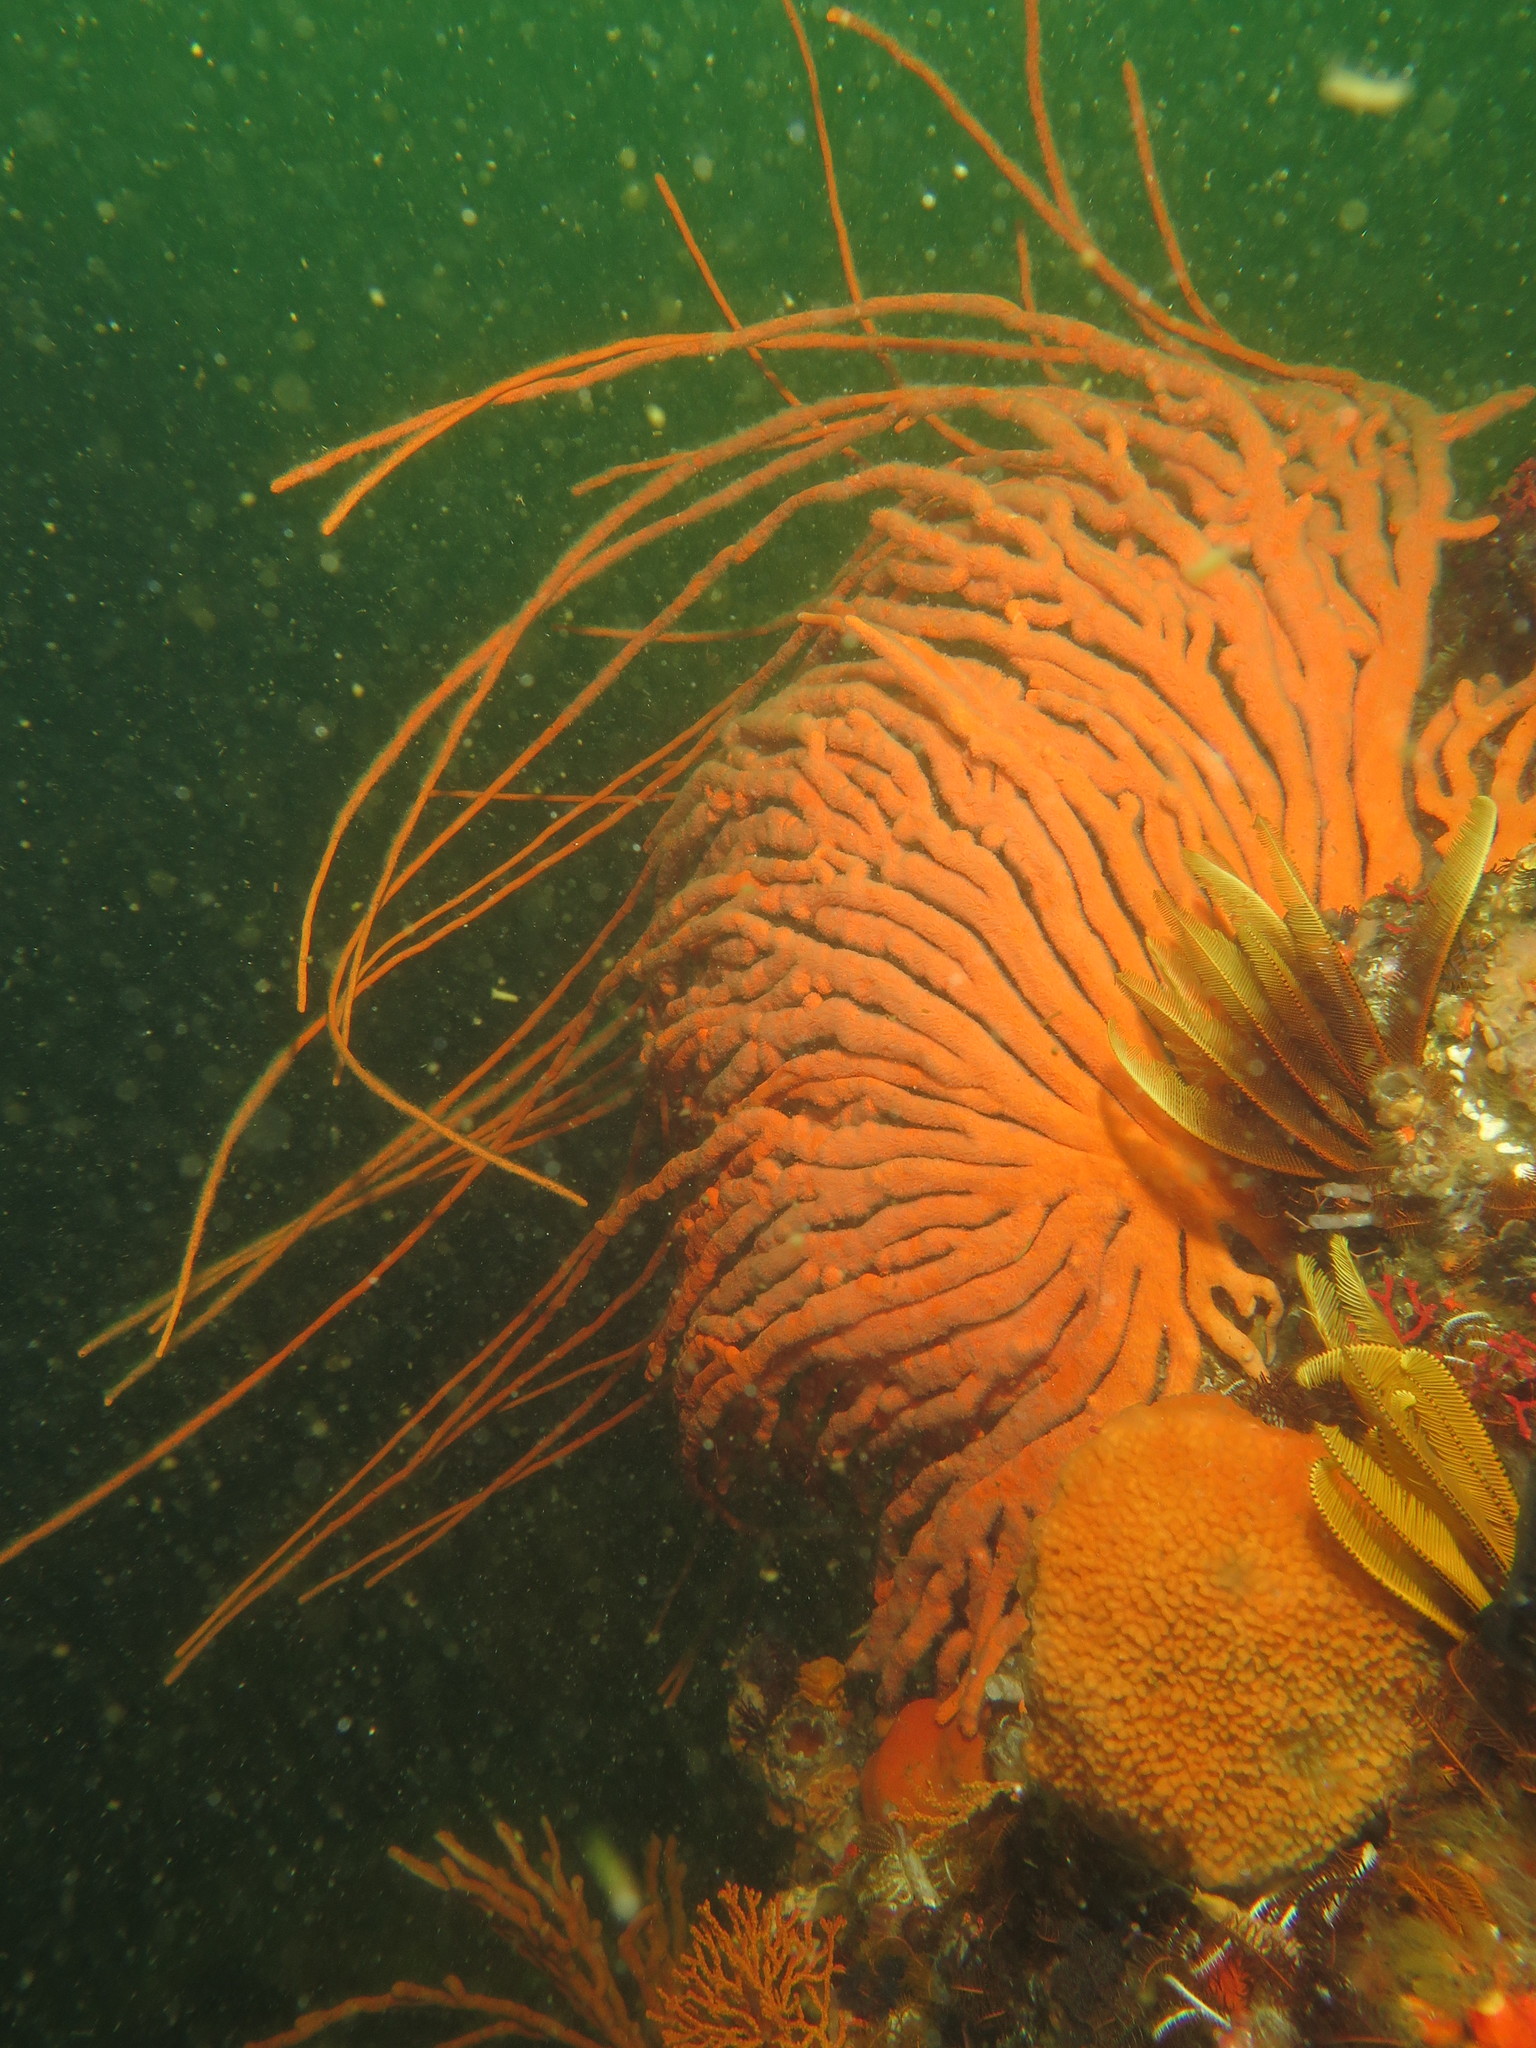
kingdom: Animalia
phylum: Cnidaria
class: Anthozoa
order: Malacalcyonacea
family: Eunicellidae
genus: Eunicella
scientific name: Eunicella albicans
